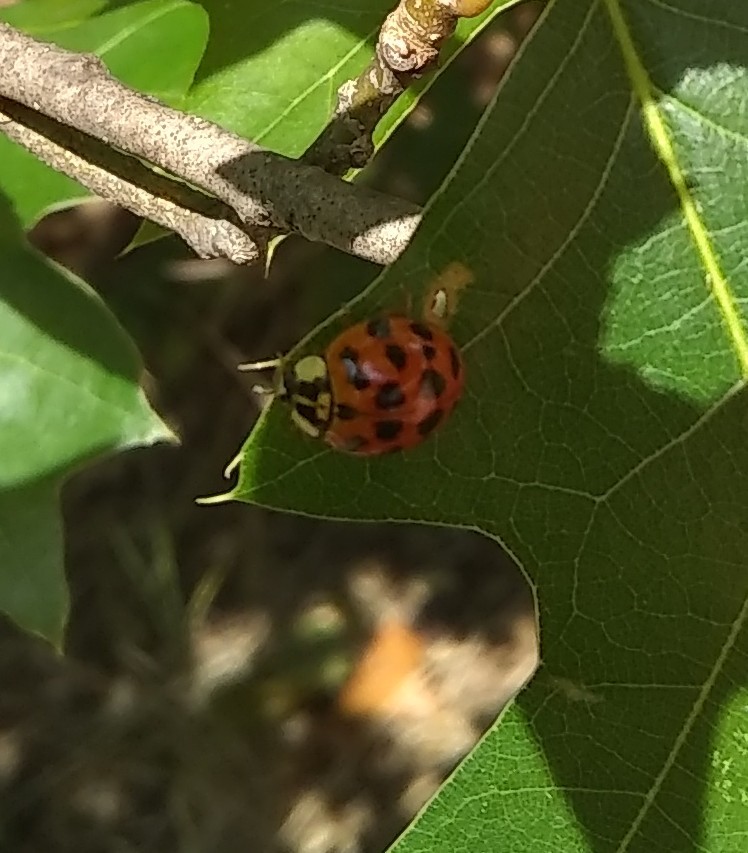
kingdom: Animalia
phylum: Arthropoda
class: Insecta
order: Coleoptera
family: Coccinellidae
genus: Harmonia
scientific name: Harmonia axyridis
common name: Harlequin ladybird
